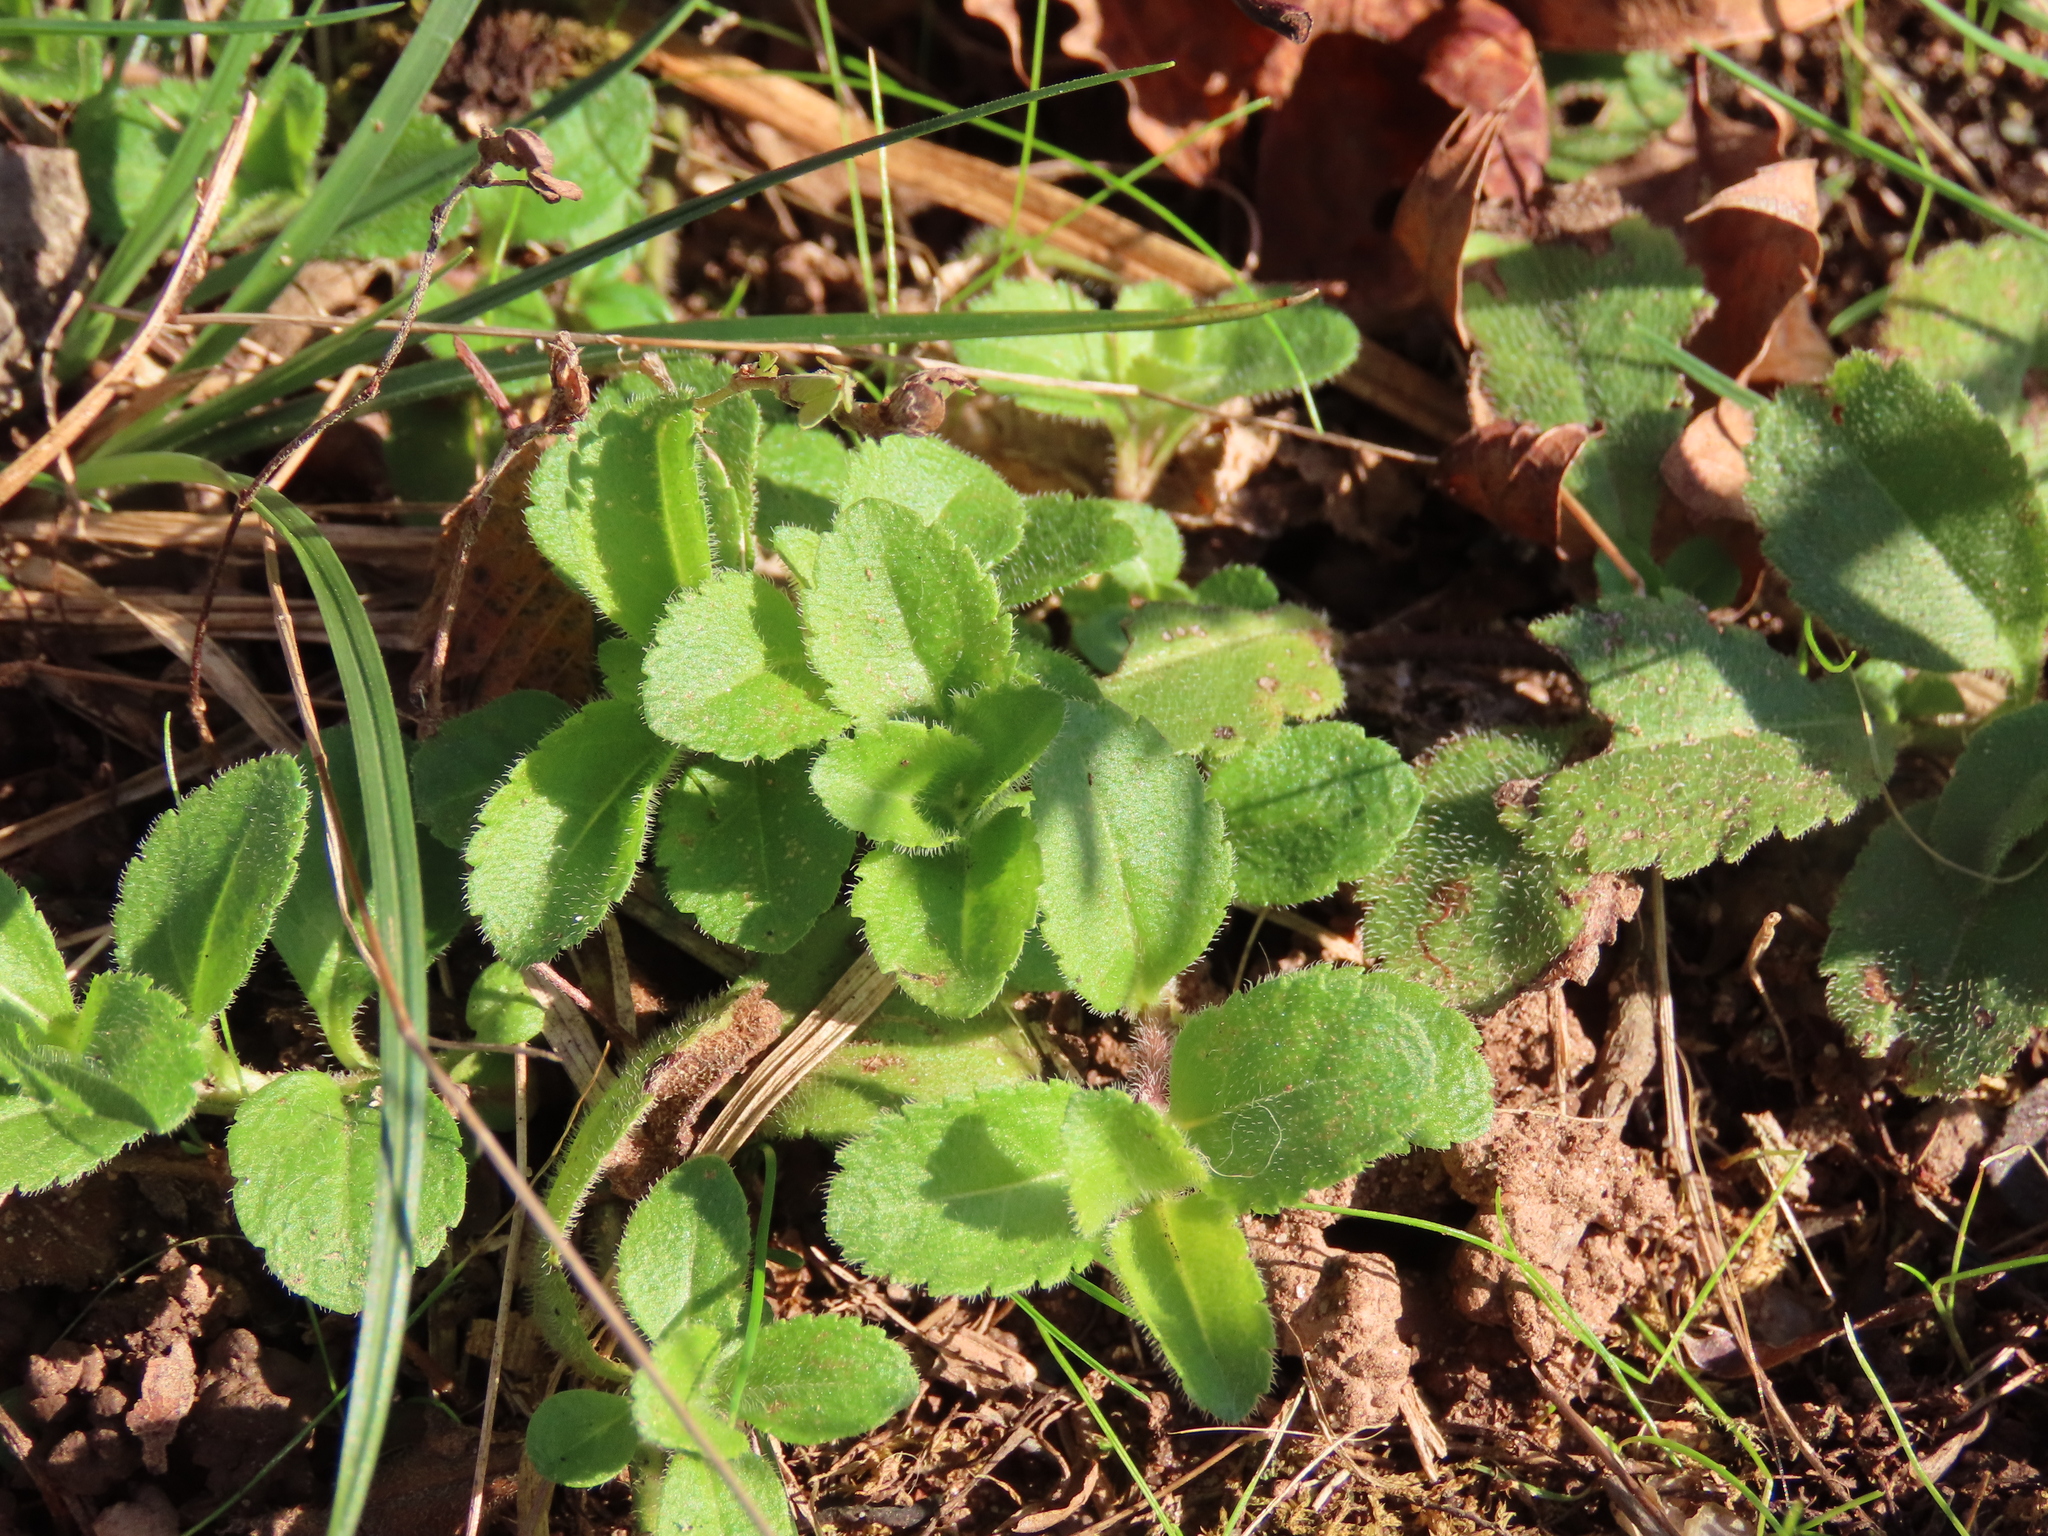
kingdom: Plantae
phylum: Tracheophyta
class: Magnoliopsida
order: Lamiales
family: Plantaginaceae
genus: Veronica
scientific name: Veronica officinalis
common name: Common speedwell
